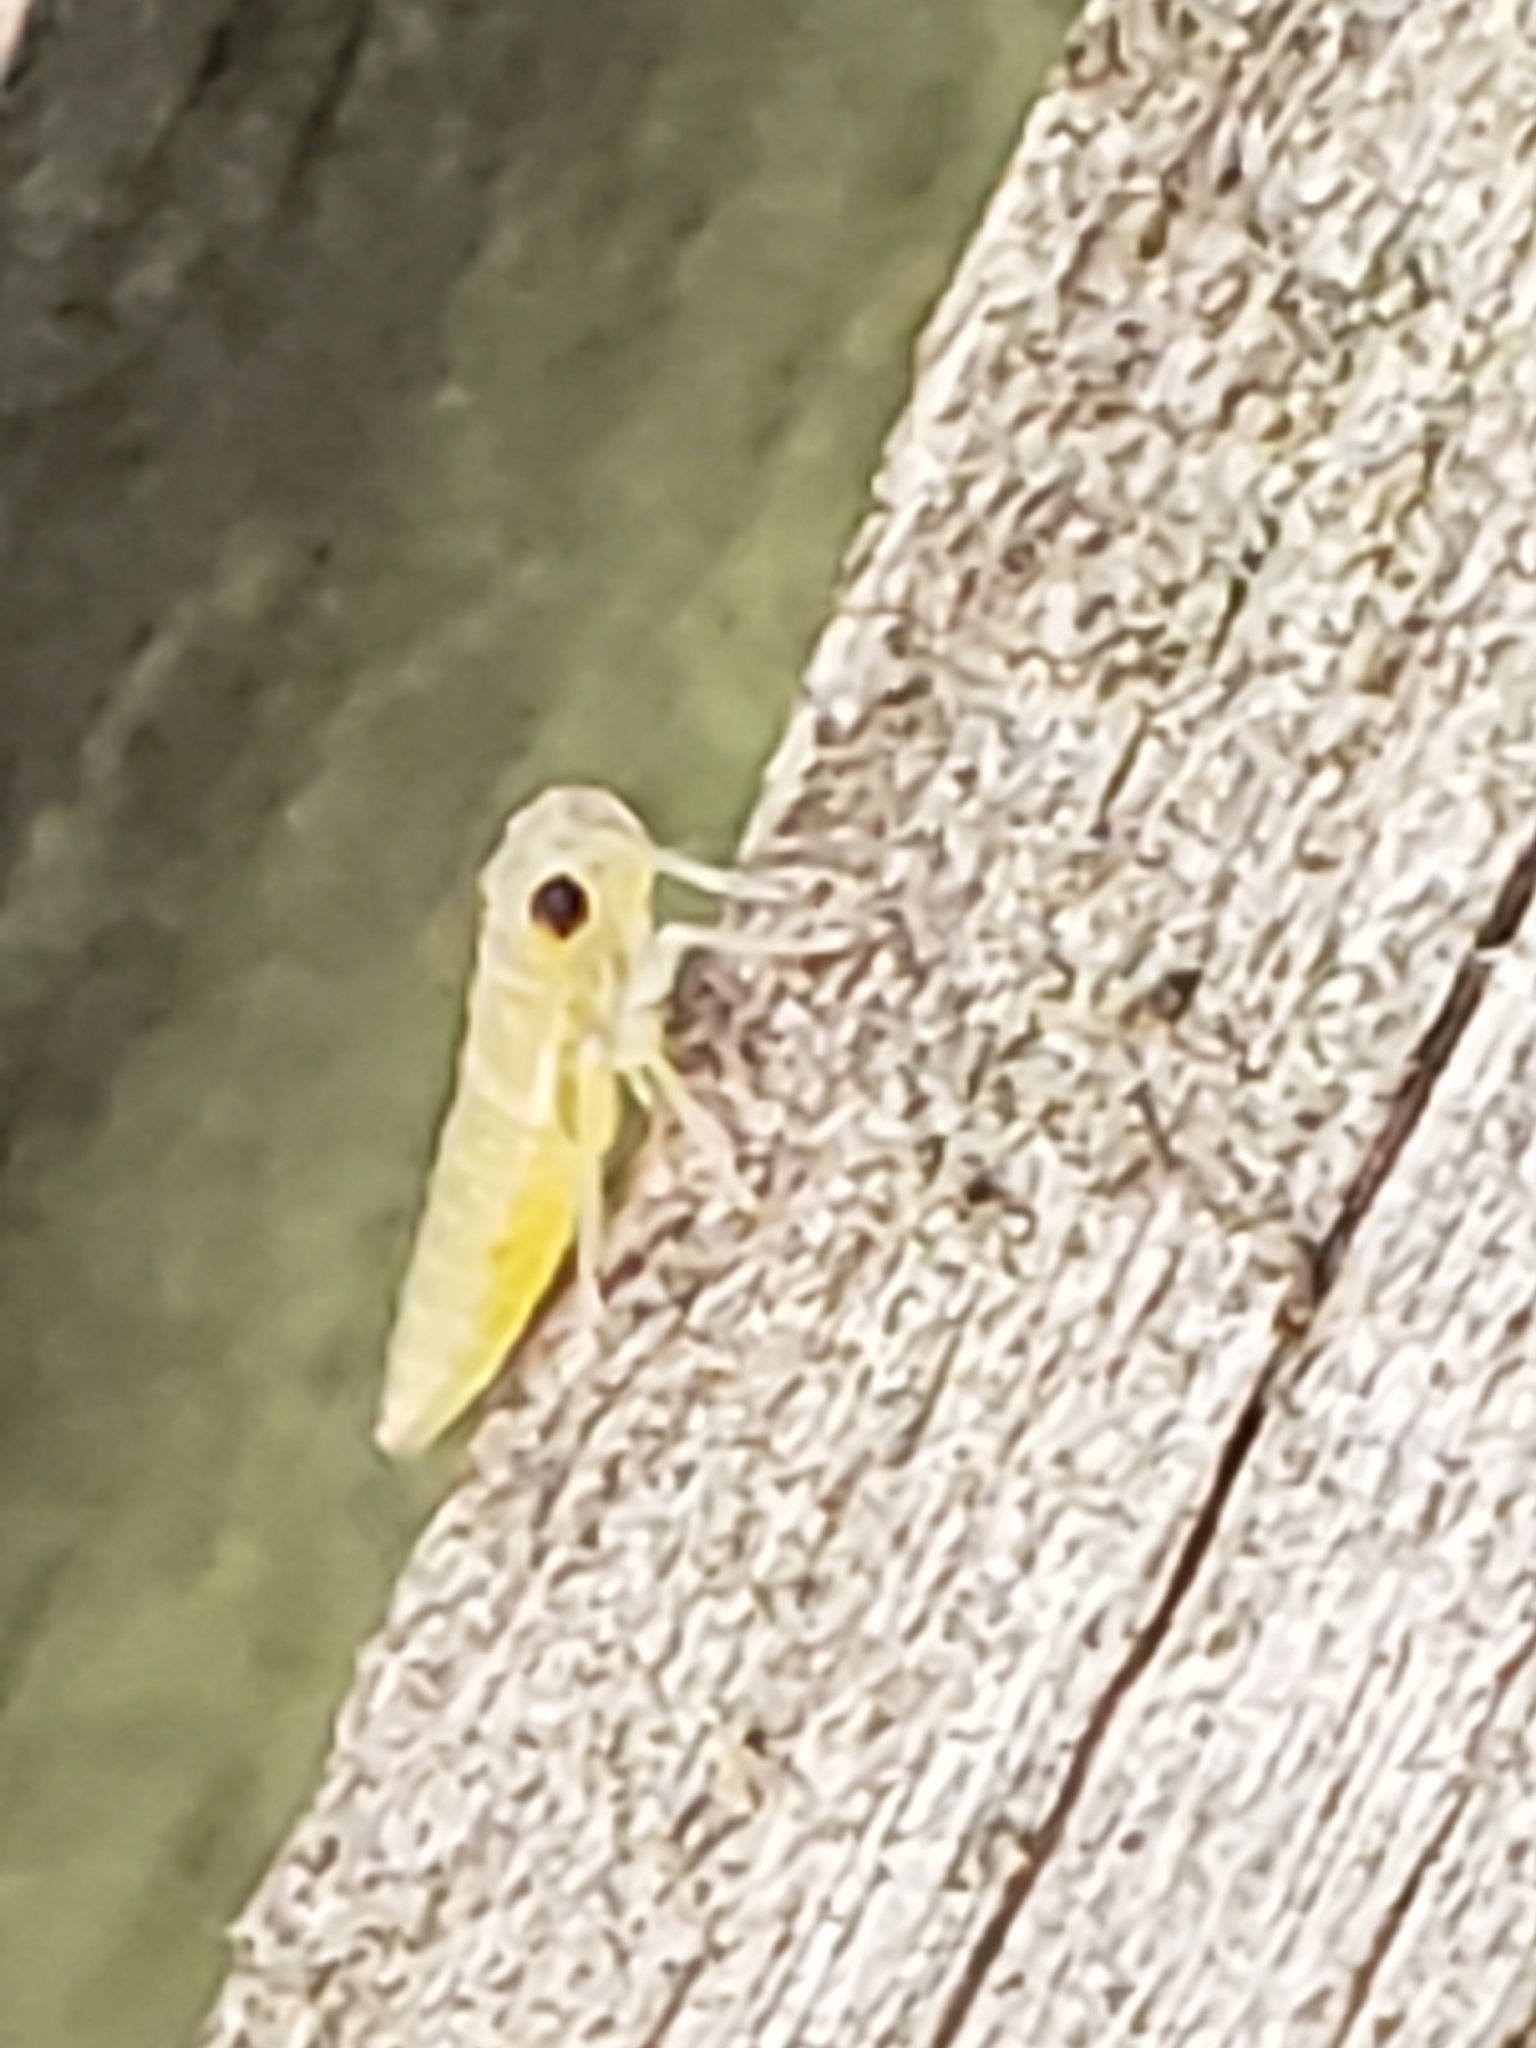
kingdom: Animalia
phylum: Arthropoda
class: Insecta
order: Hemiptera
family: Cicadellidae
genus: Oncometopia
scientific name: Oncometopia orbona
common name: Broad-headed sharpshooter
